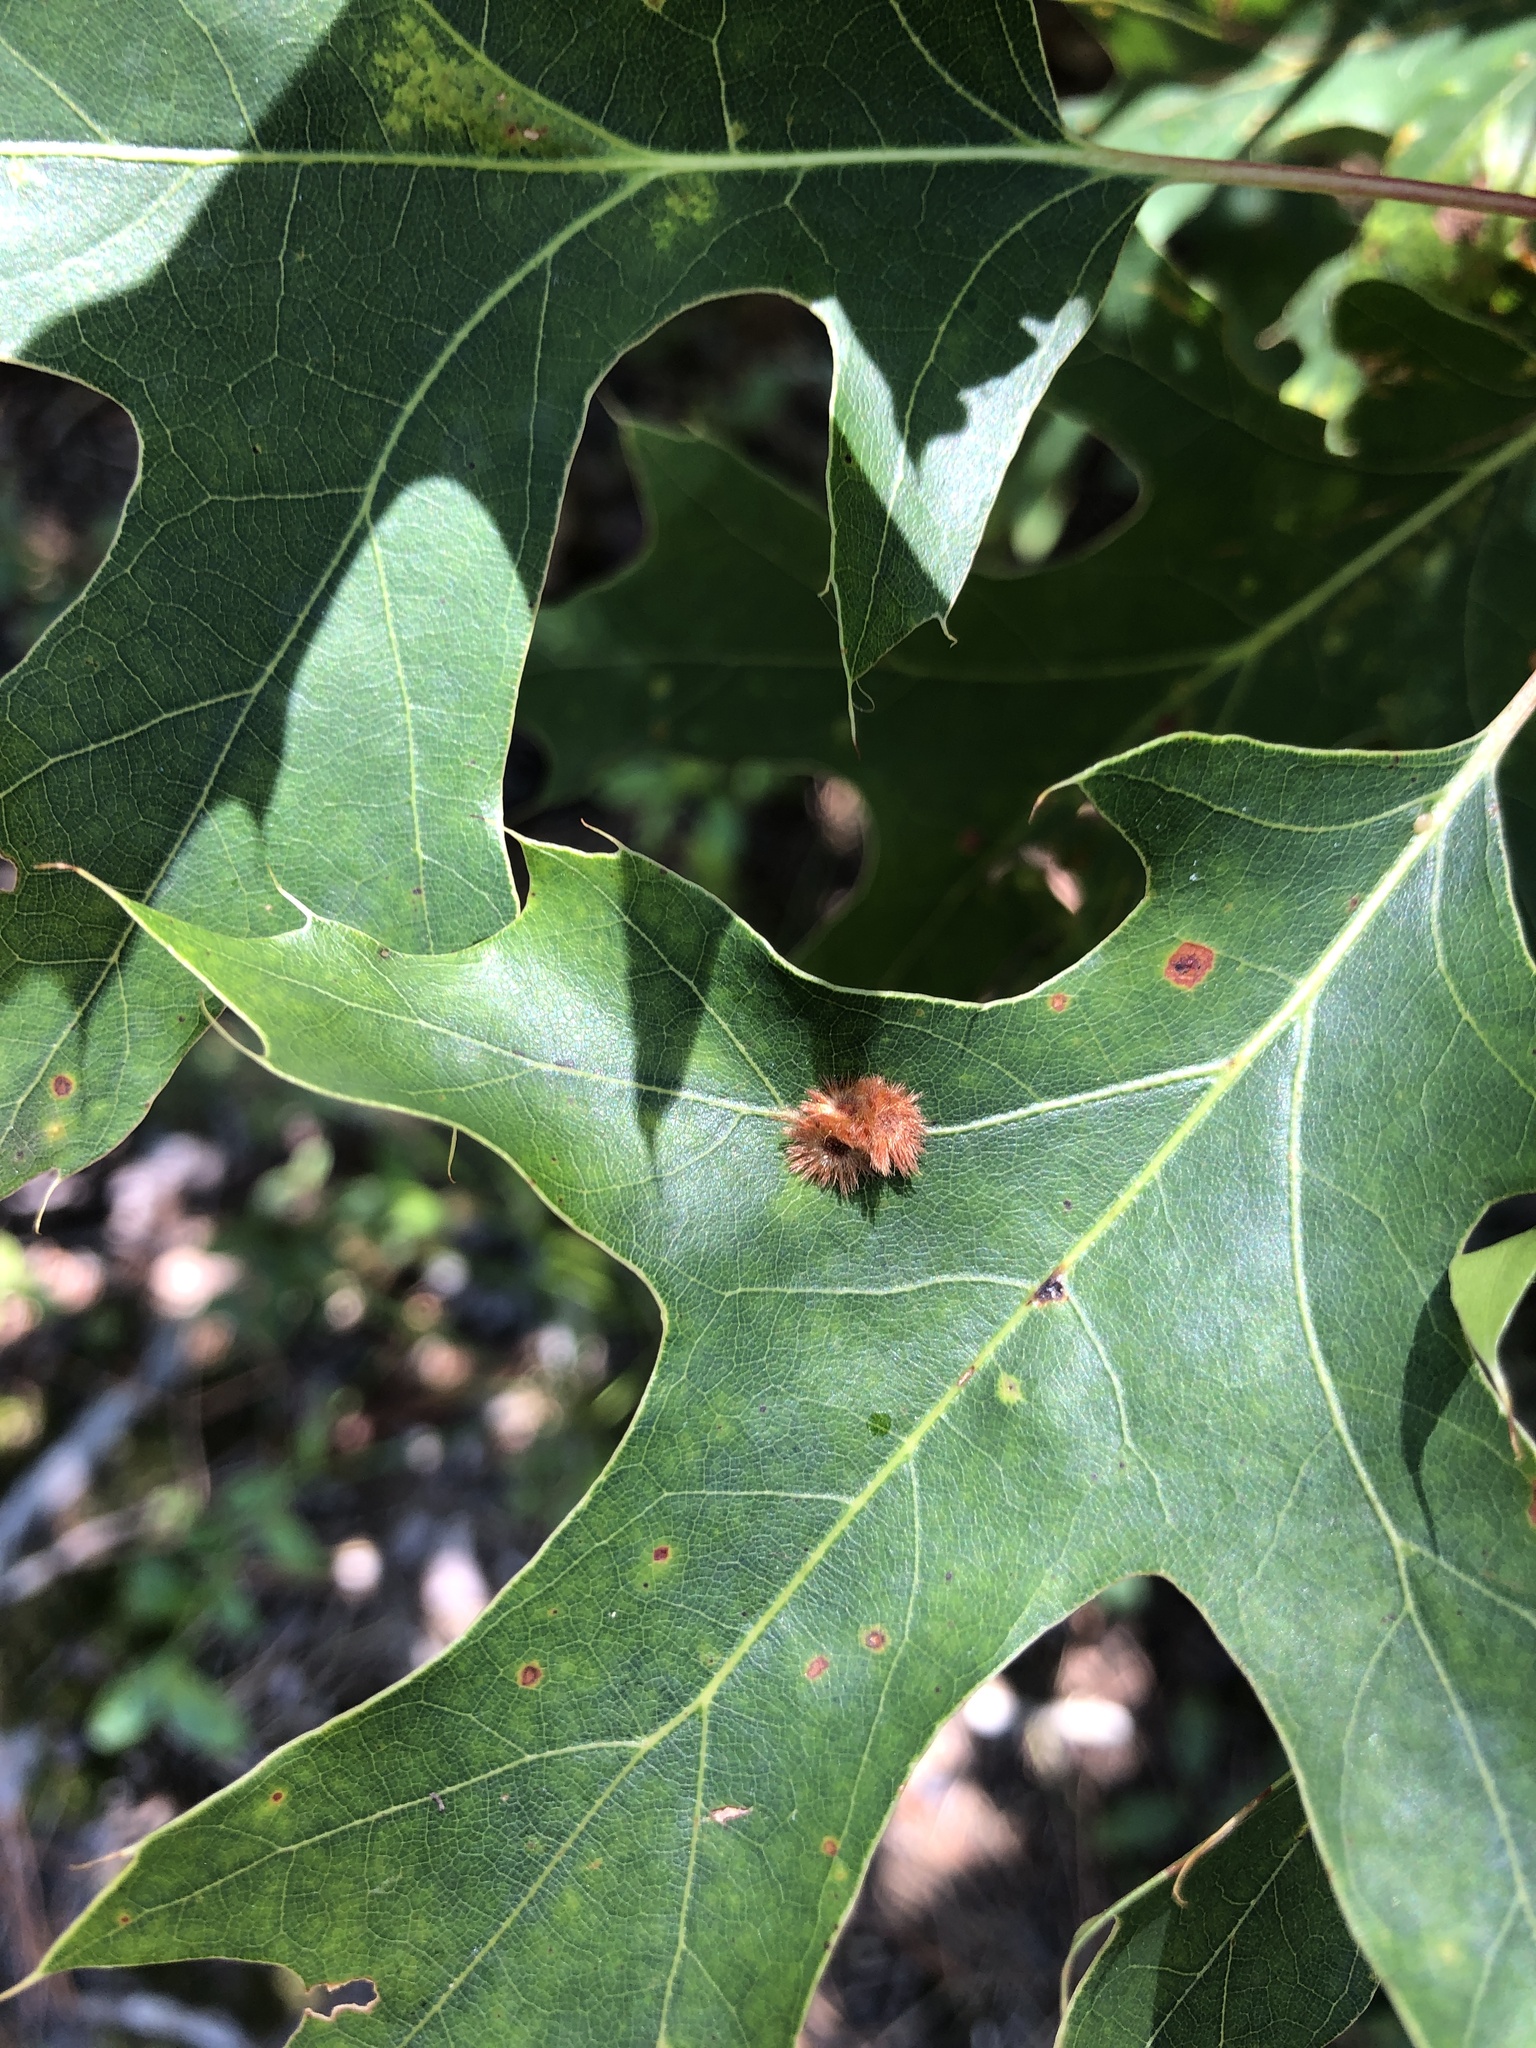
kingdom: Animalia
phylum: Arthropoda
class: Insecta
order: Hymenoptera
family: Cynipidae
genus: Callirhytis
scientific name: Callirhytis
